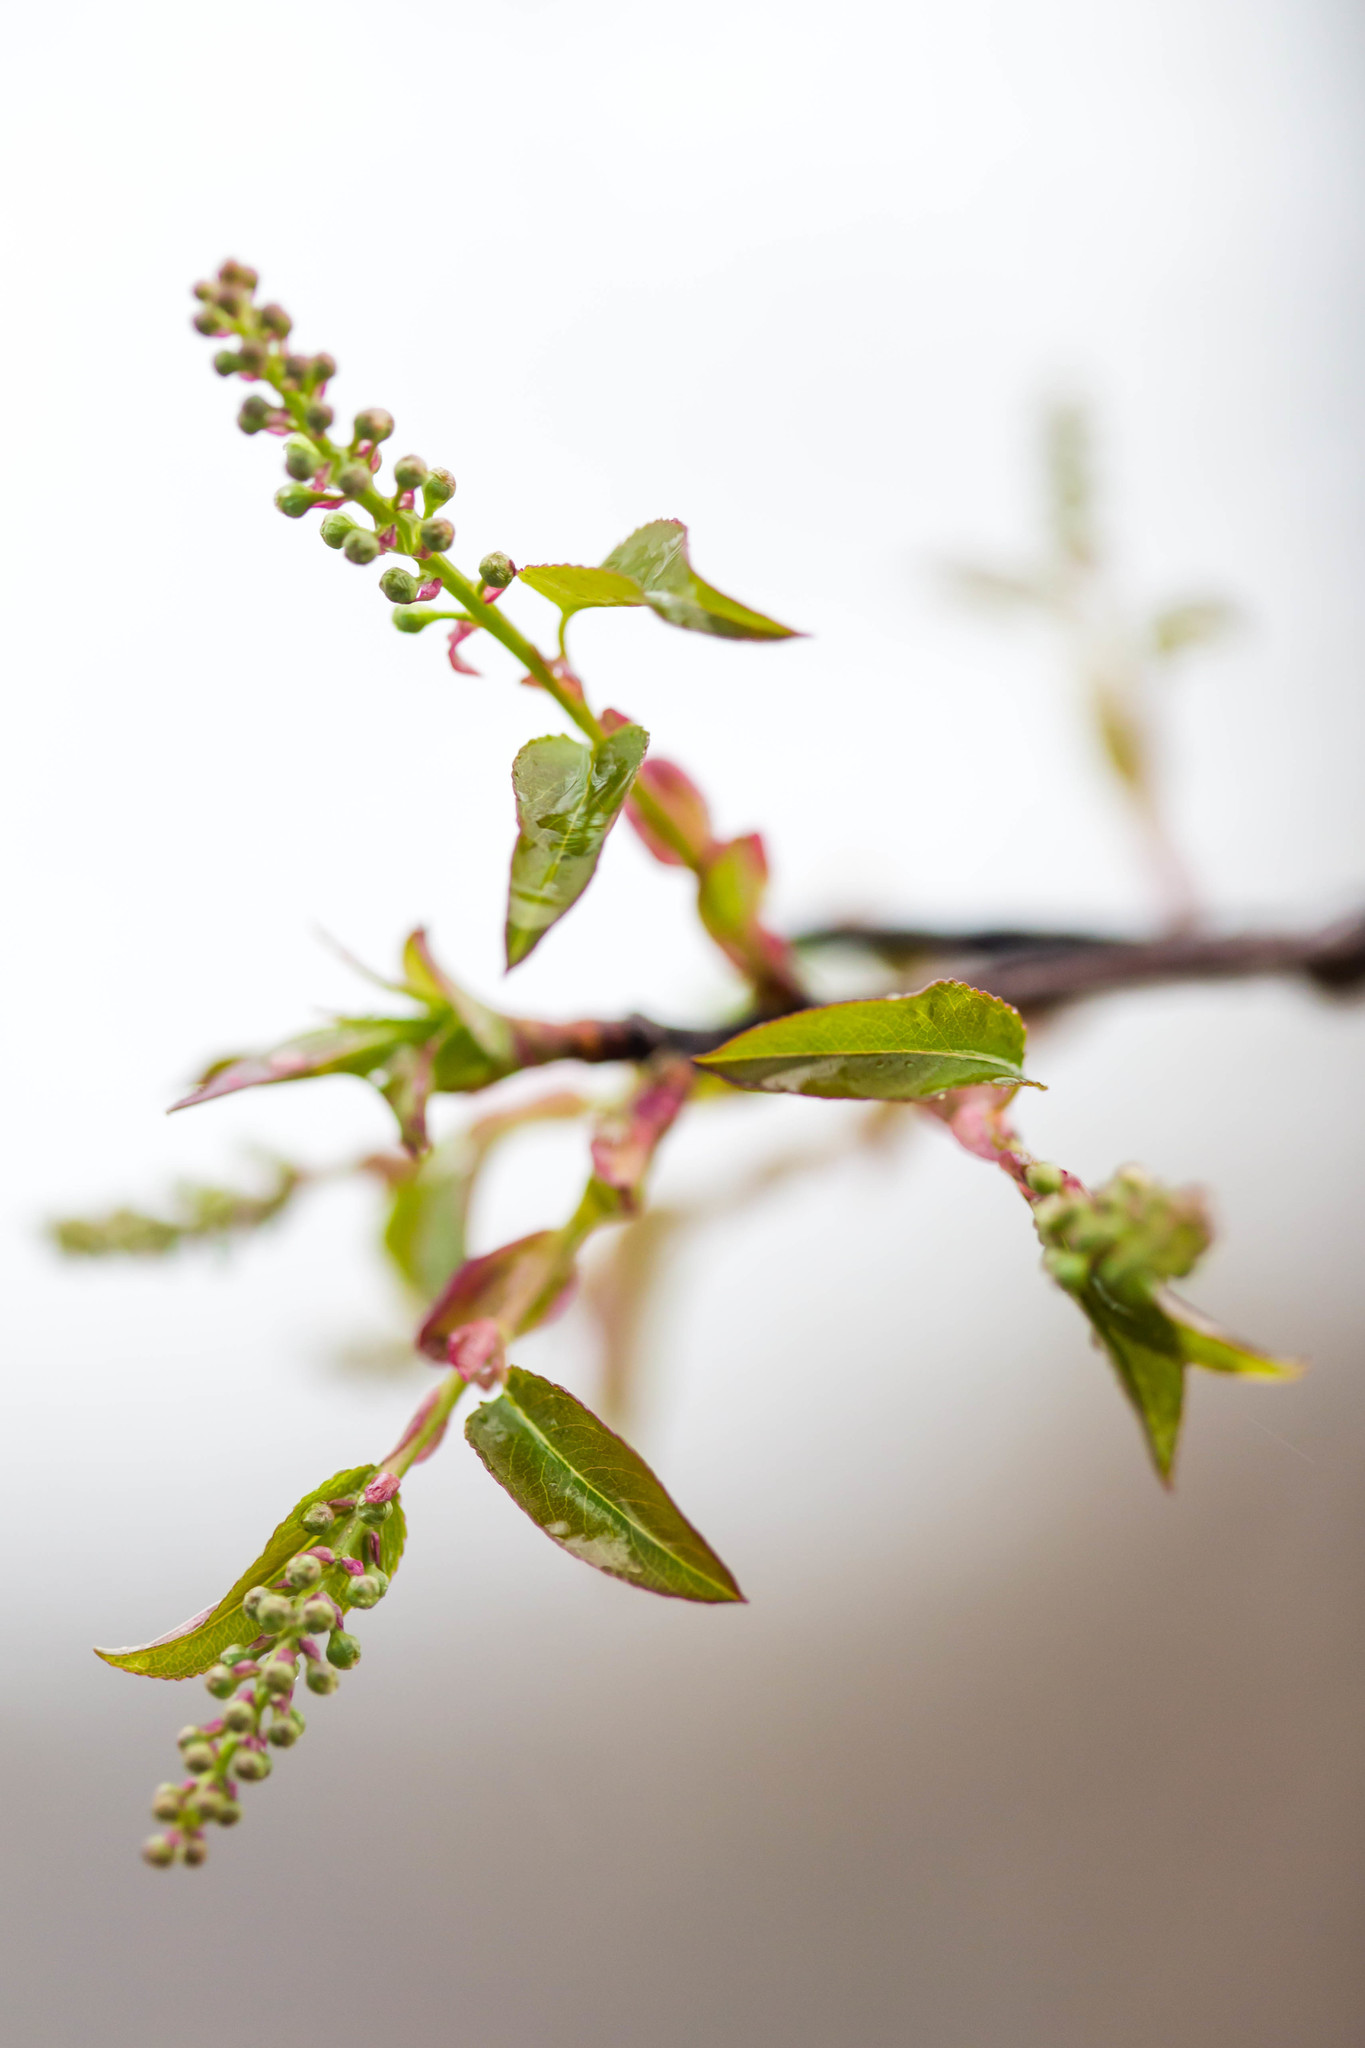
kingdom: Plantae
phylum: Tracheophyta
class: Magnoliopsida
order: Rosales
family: Rosaceae
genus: Prunus
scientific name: Prunus serotina
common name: Black cherry
